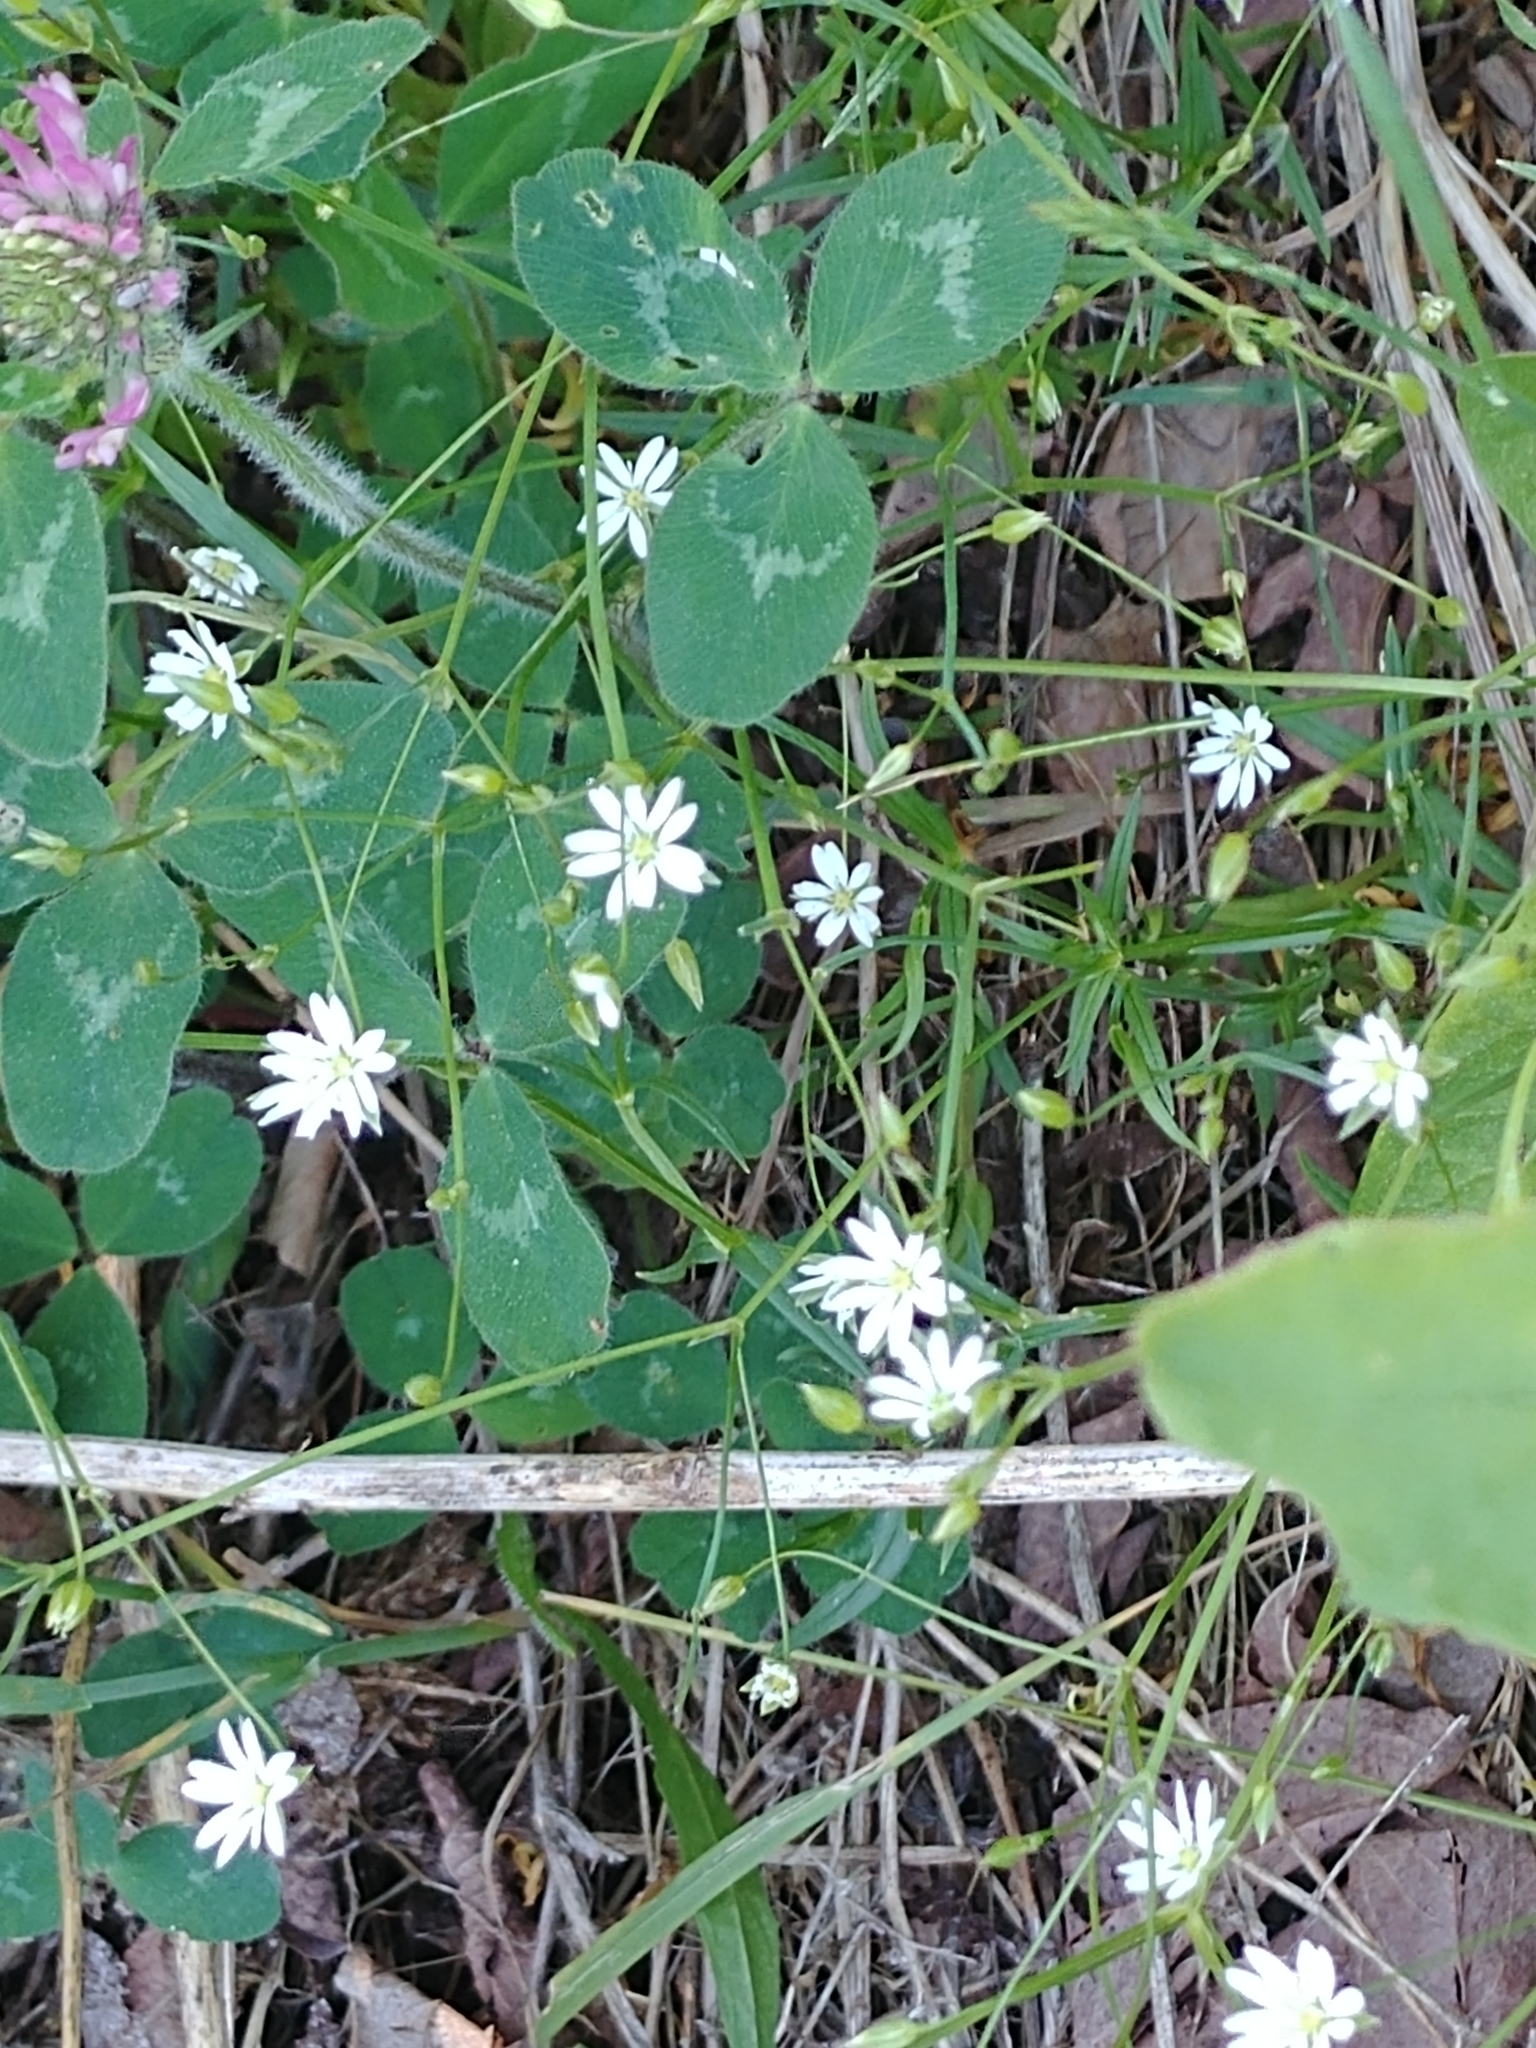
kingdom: Plantae
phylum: Tracheophyta
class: Magnoliopsida
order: Caryophyllales
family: Caryophyllaceae
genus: Stellaria
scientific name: Stellaria graminea
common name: Grass-like starwort
